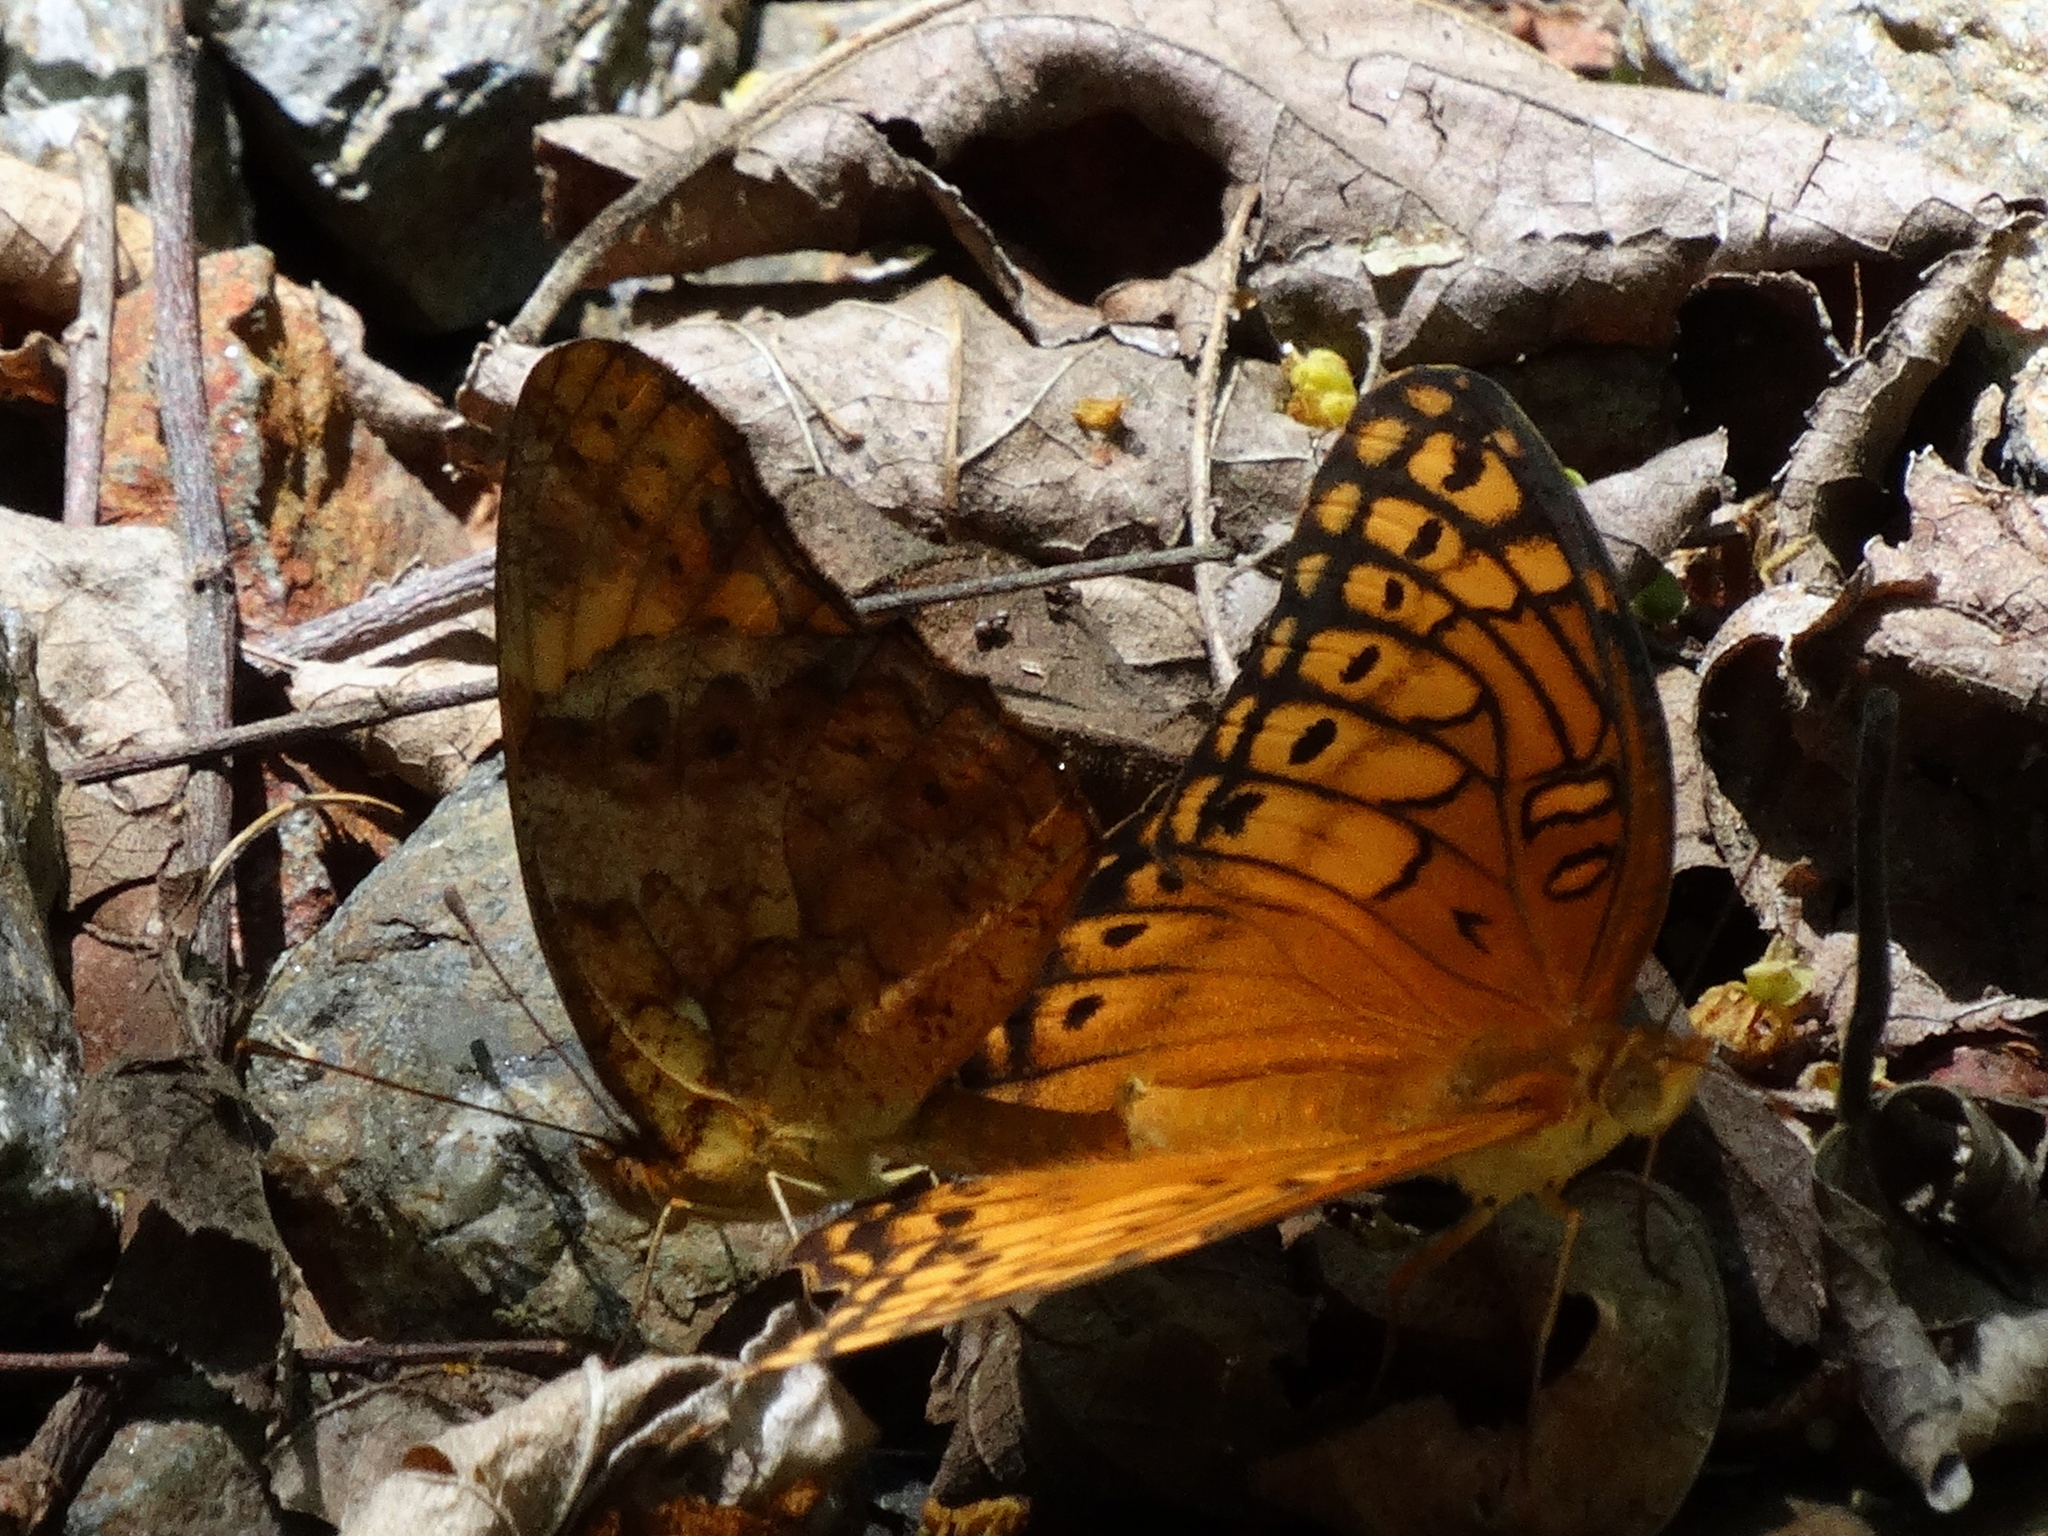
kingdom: Animalia
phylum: Arthropoda
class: Insecta
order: Lepidoptera
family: Nymphalidae
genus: Euptoieta
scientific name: Euptoieta hegesia
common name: Mexican fritillary
